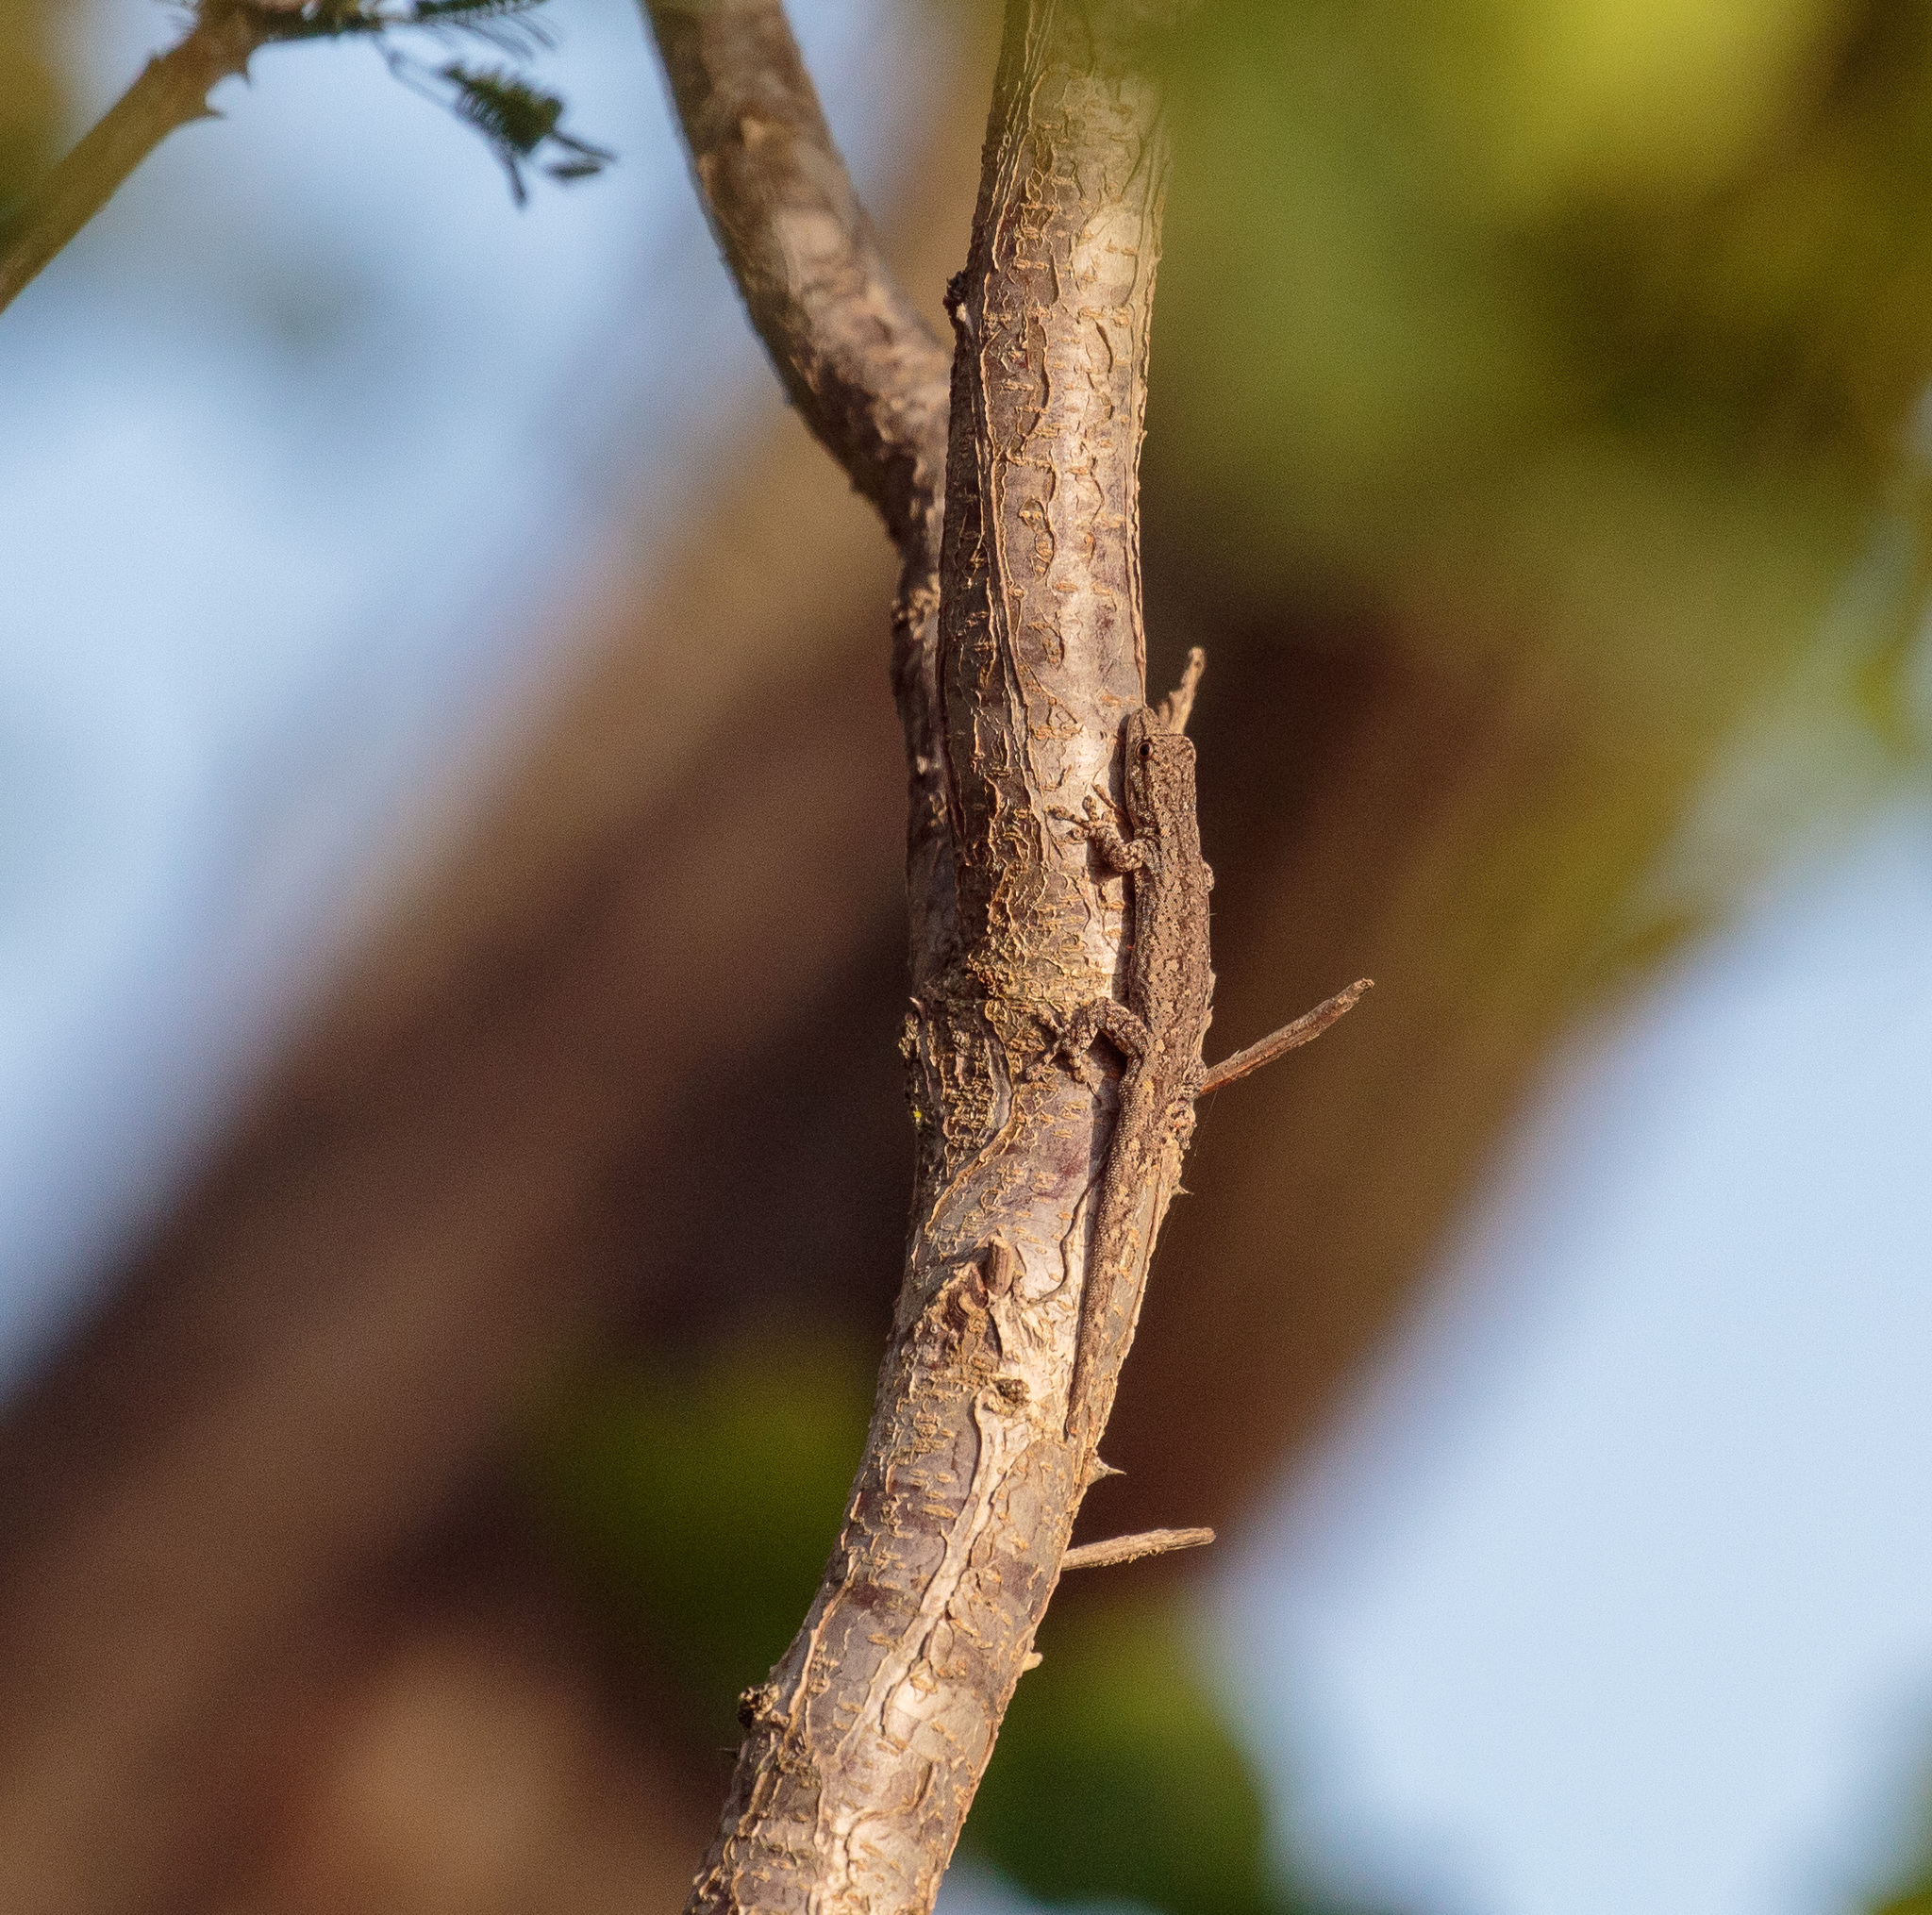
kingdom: Animalia
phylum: Chordata
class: Squamata
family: Gekkonidae
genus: Lygodactylus
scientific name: Lygodactylus klugei
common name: Kluge's dwarf gecko
